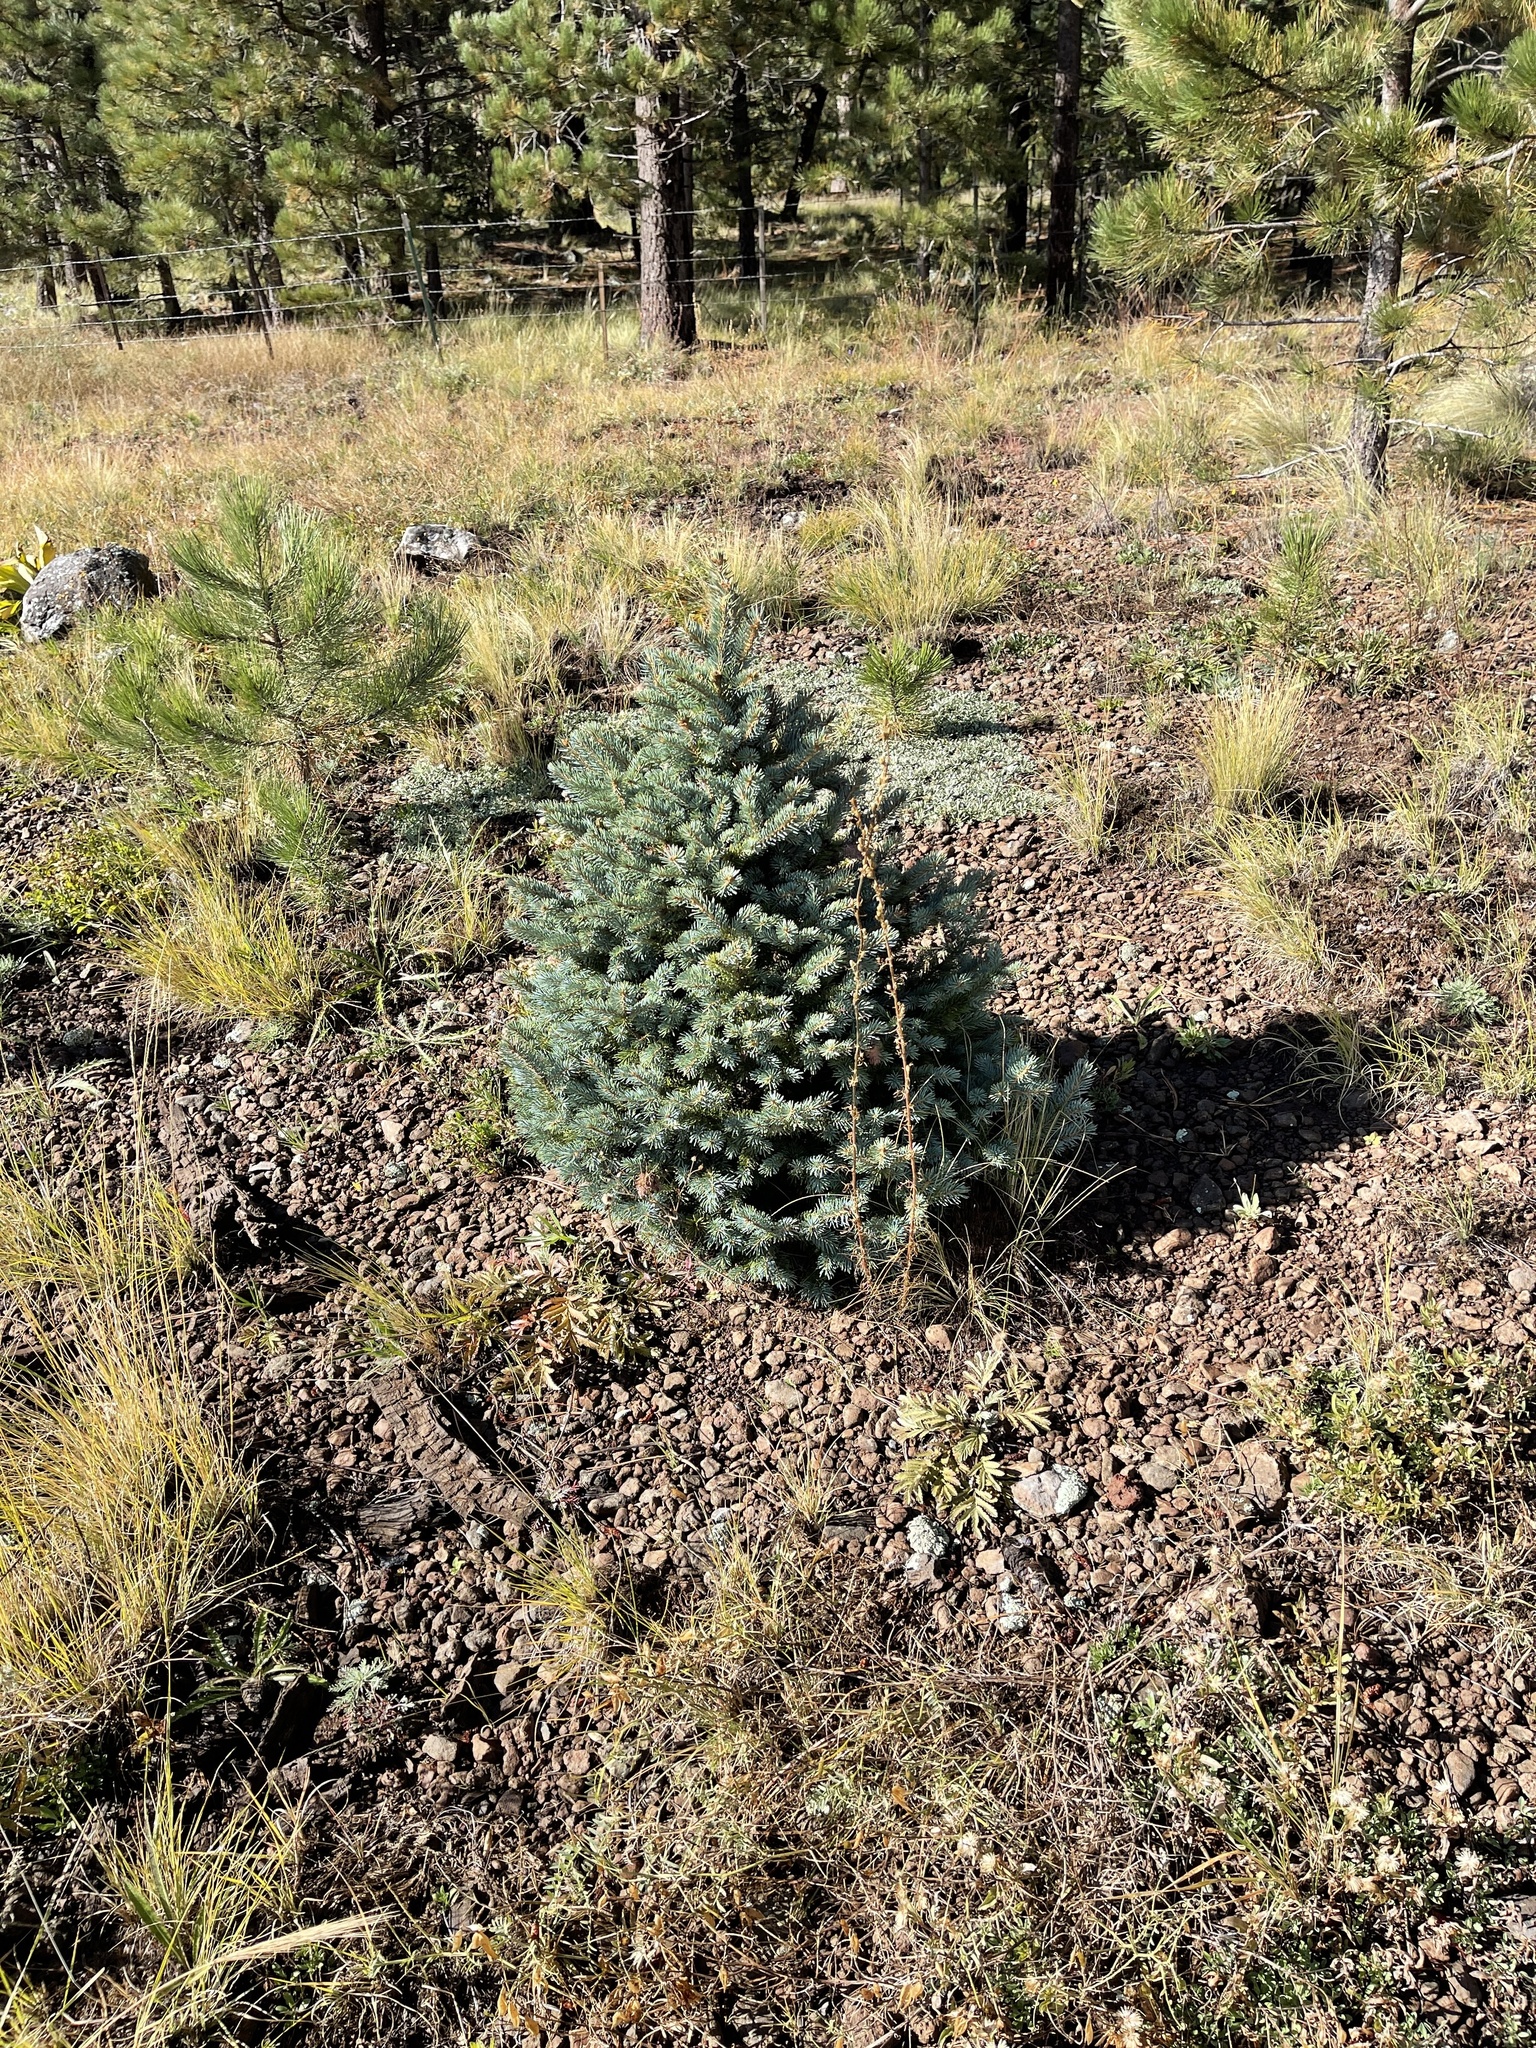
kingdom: Plantae
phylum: Tracheophyta
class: Pinopsida
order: Pinales
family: Pinaceae
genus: Picea
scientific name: Picea pungens
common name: Colorado spruce
